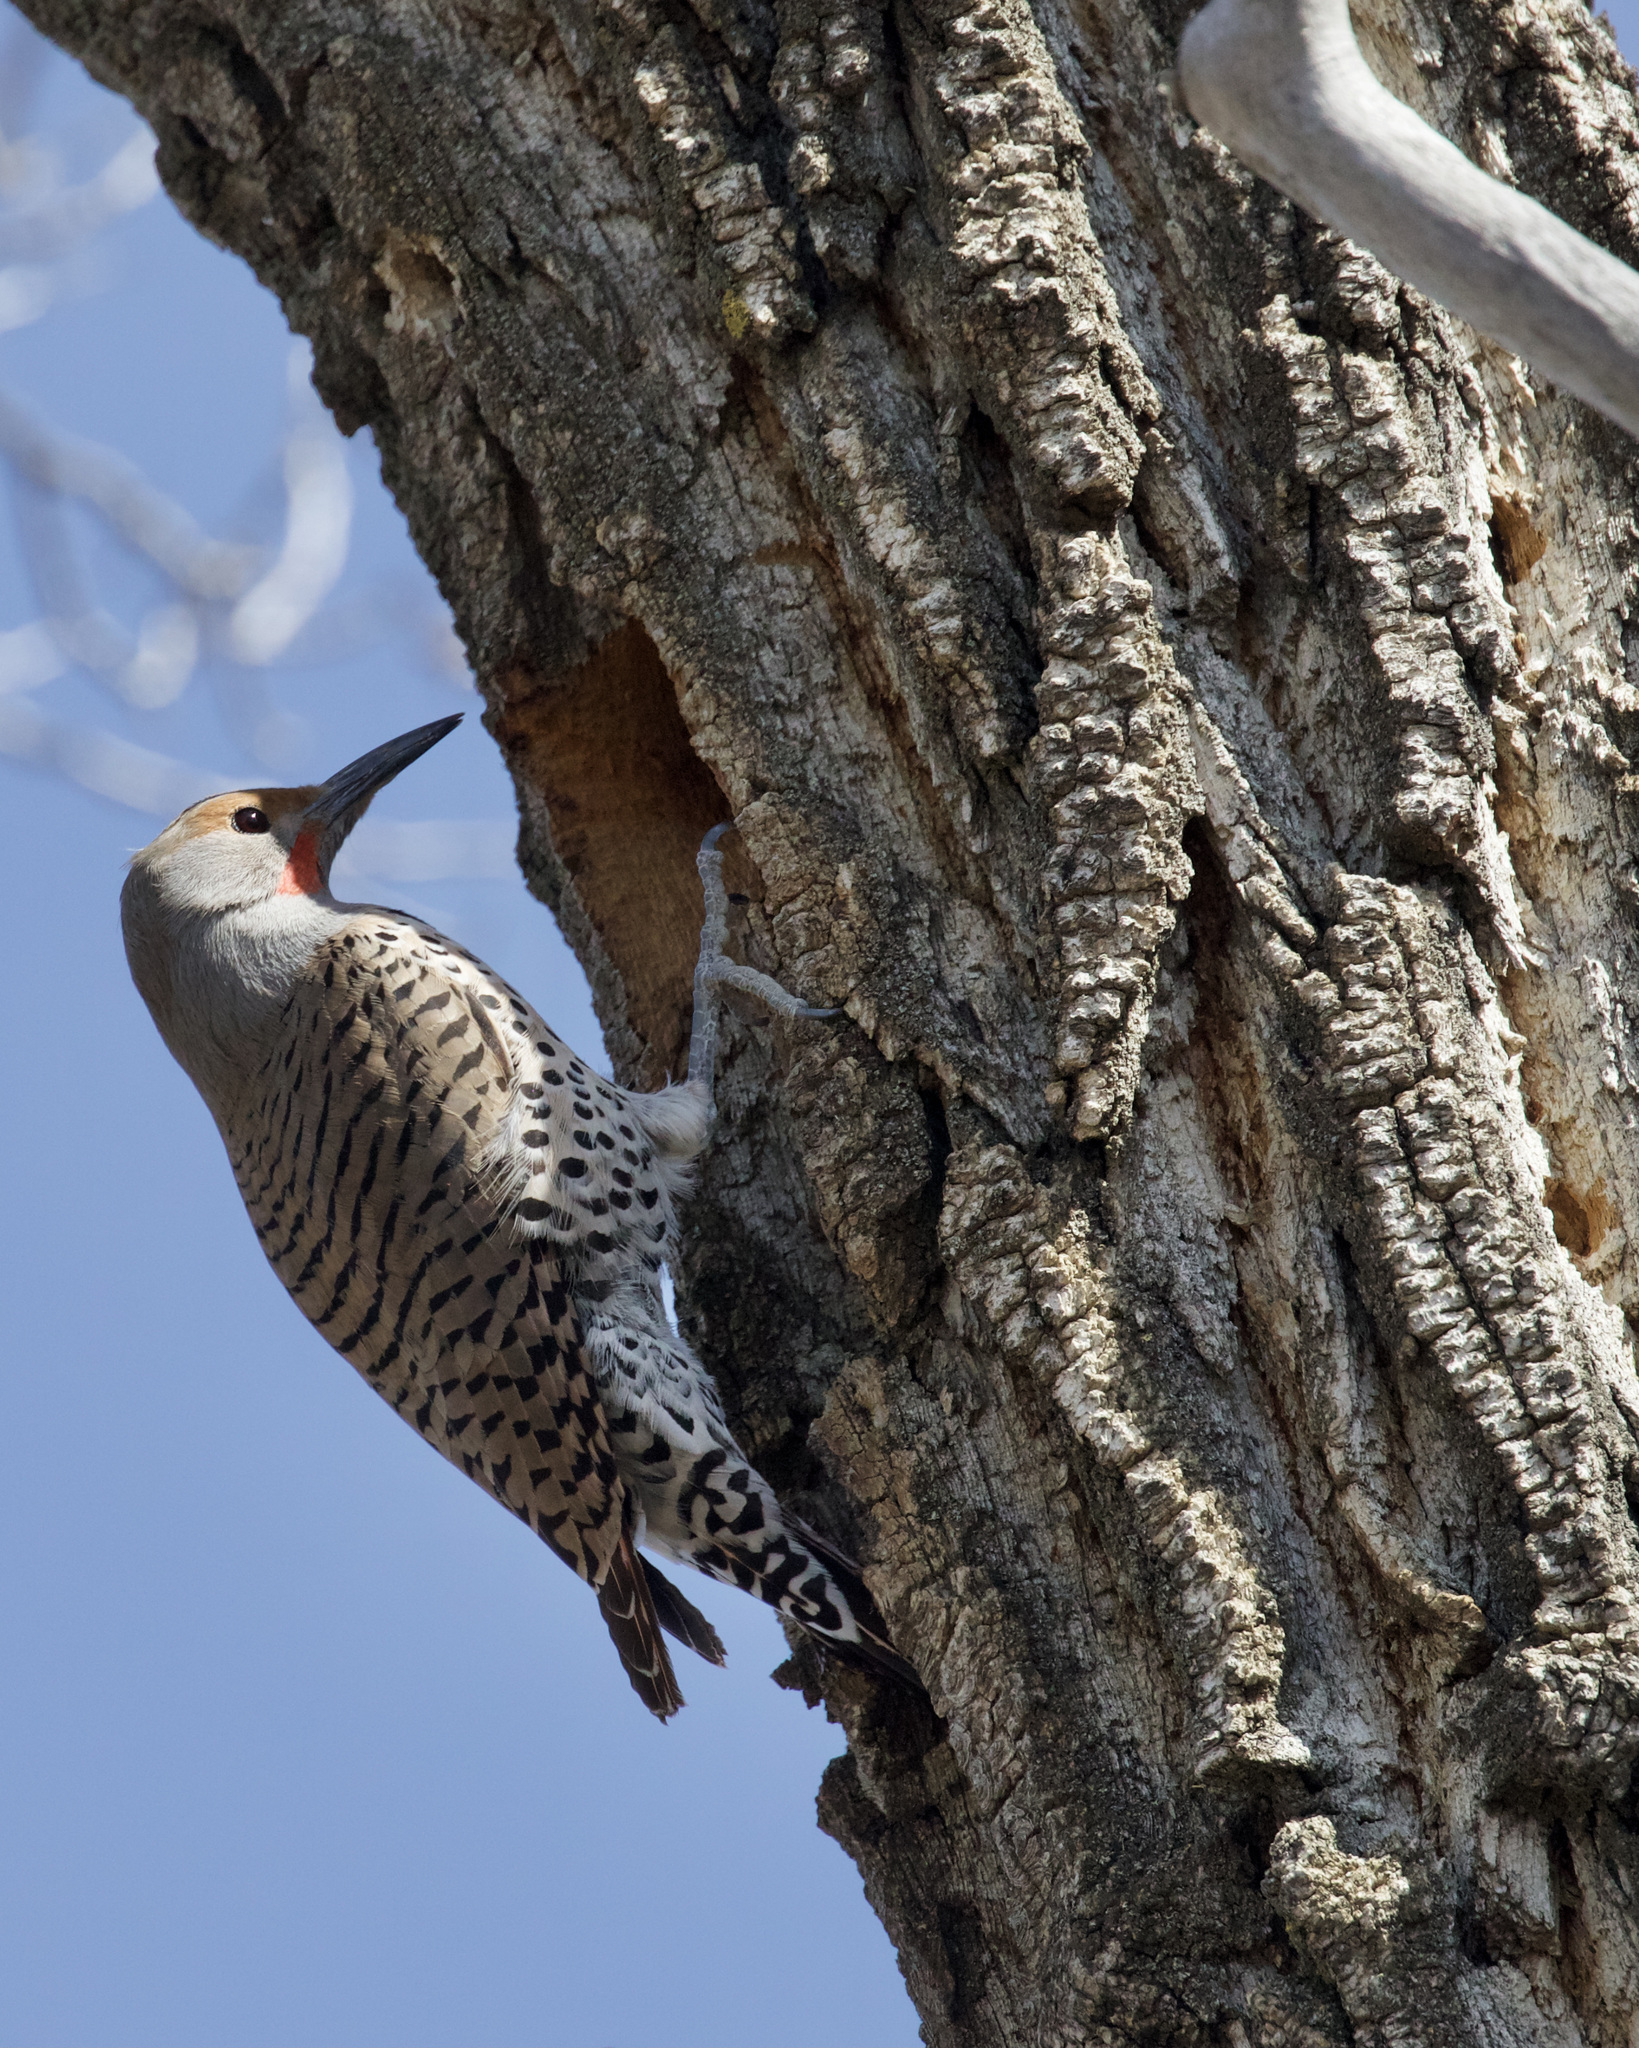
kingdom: Animalia
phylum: Chordata
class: Aves
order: Piciformes
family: Picidae
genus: Colaptes
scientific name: Colaptes auratus
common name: Northern flicker
